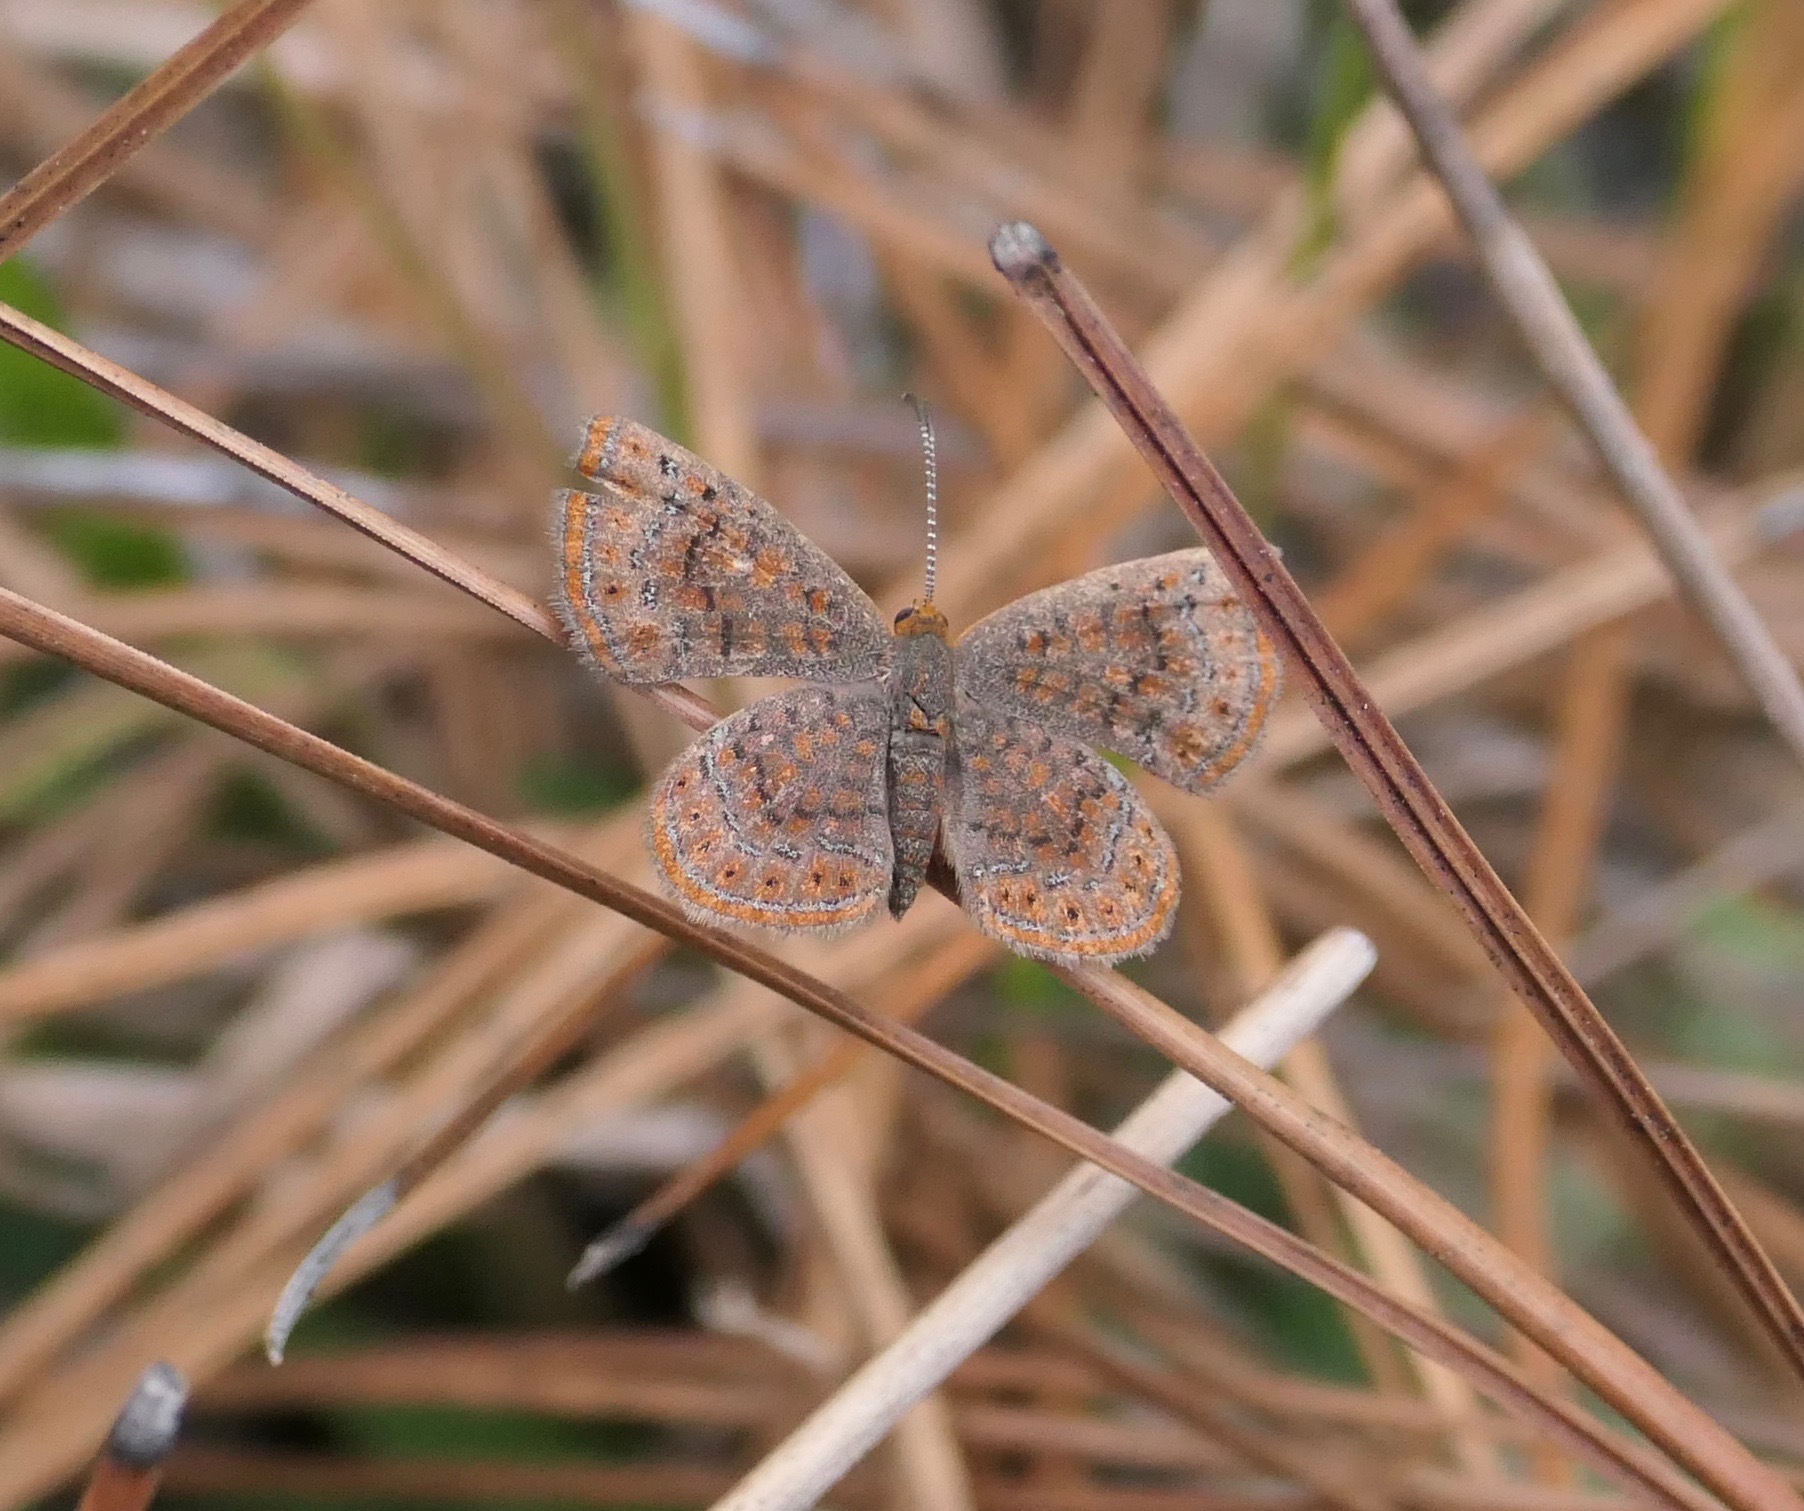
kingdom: Animalia
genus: Calephelis
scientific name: Calephelis virginiensis
